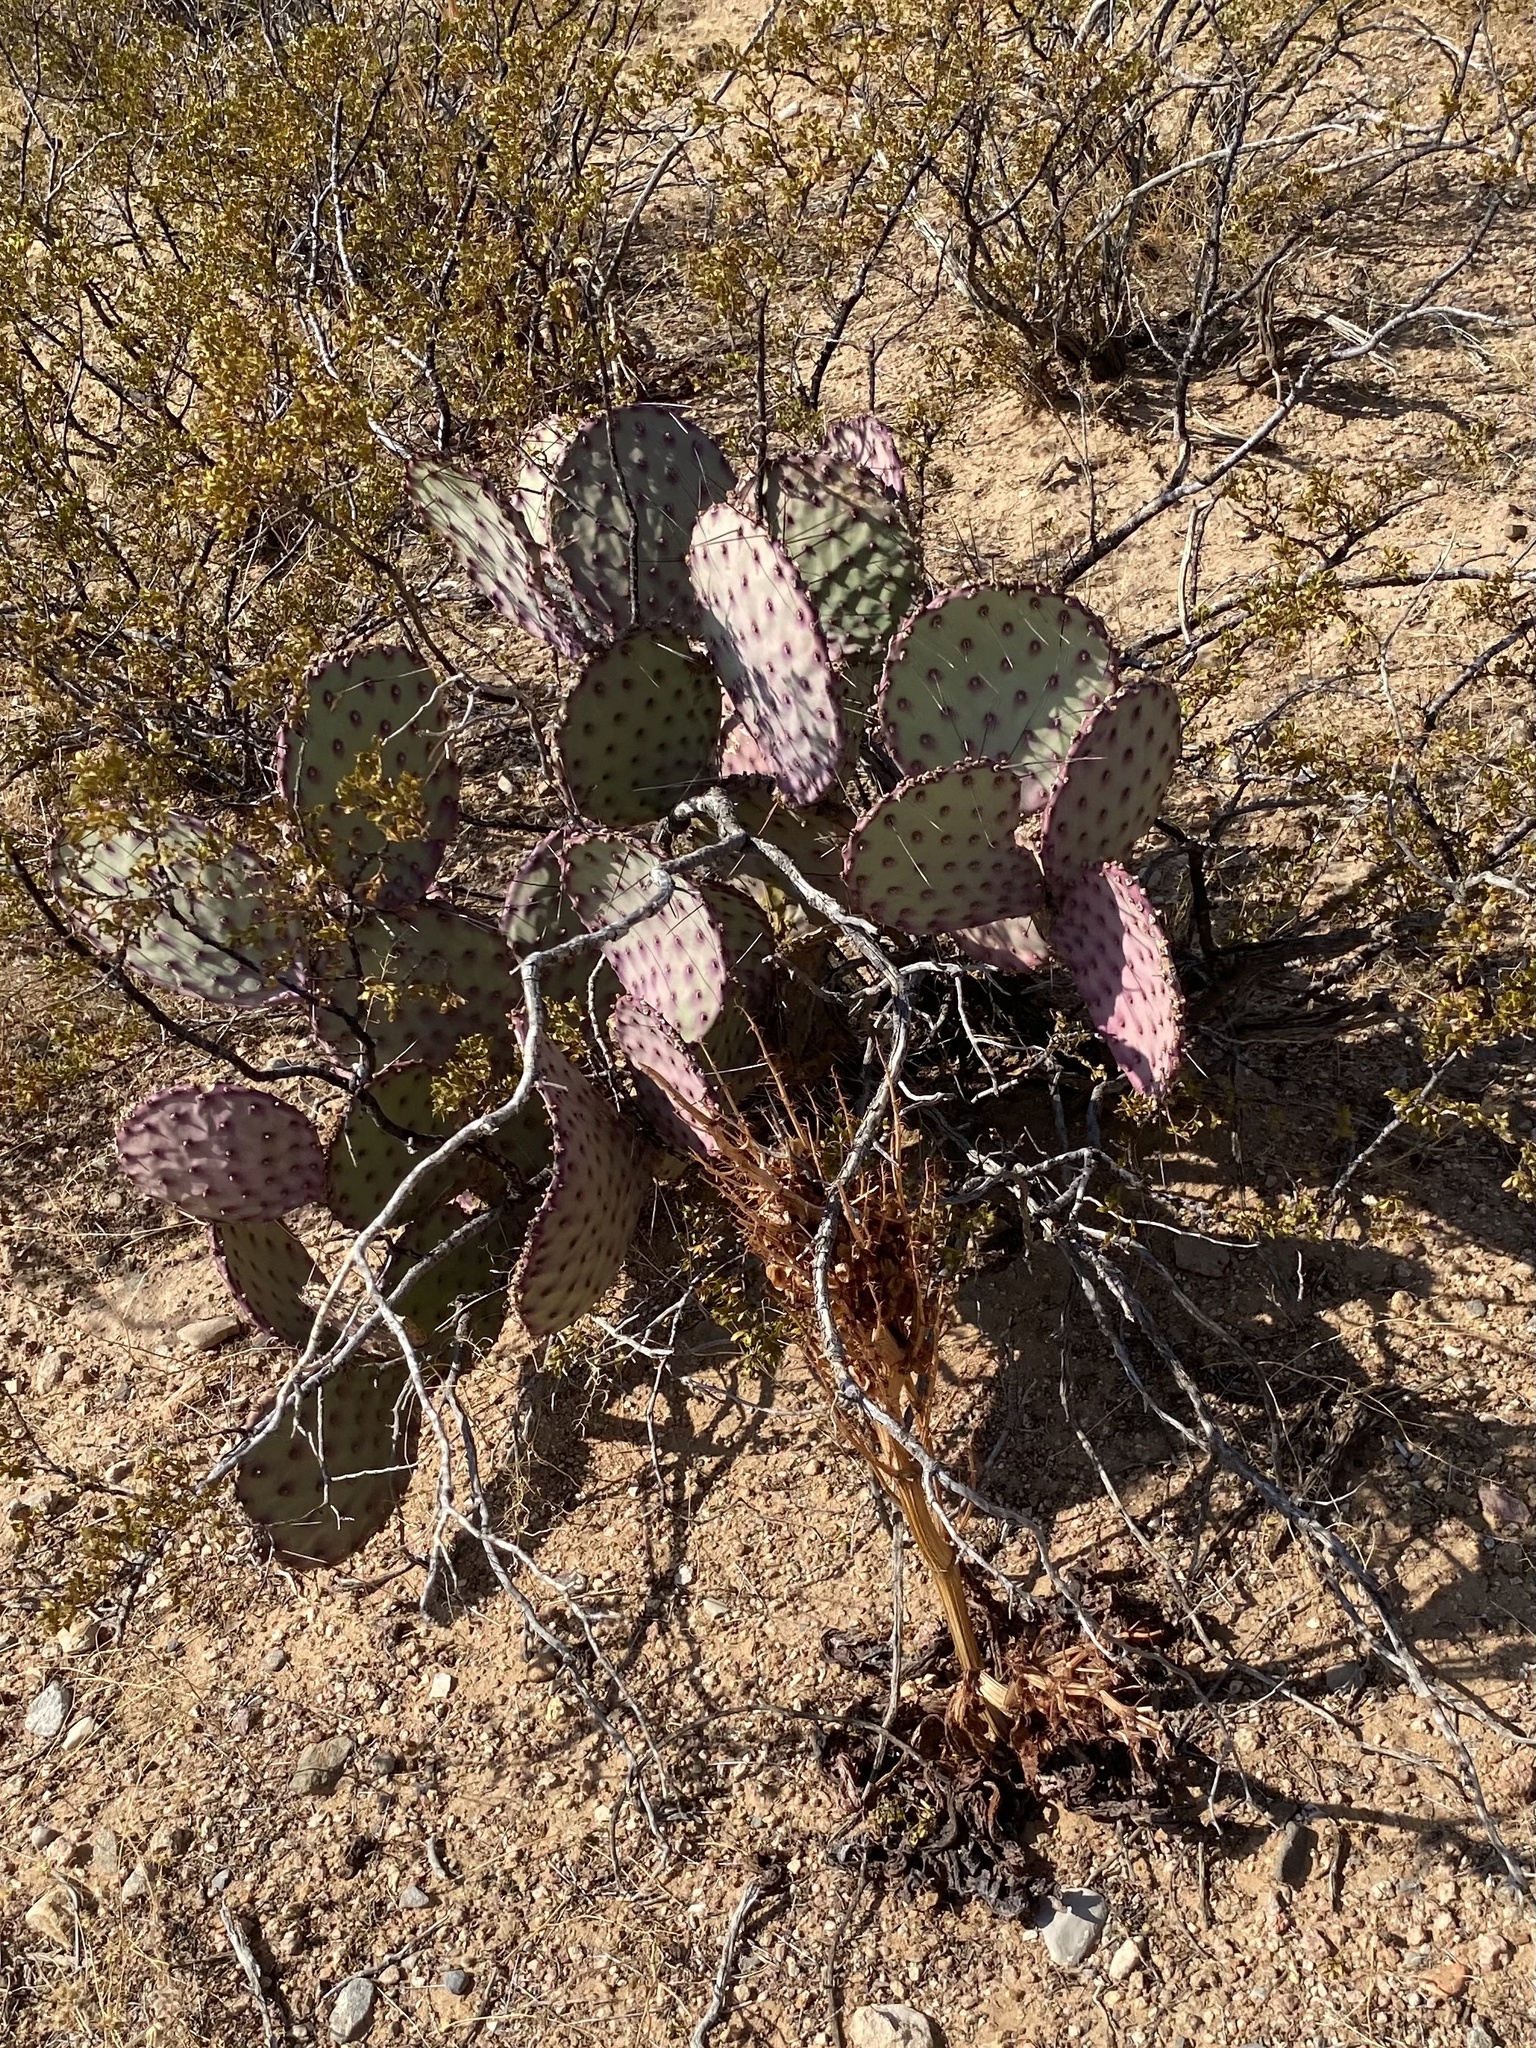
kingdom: Plantae
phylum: Tracheophyta
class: Magnoliopsida
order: Caryophyllales
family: Cactaceae
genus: Opuntia
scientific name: Opuntia macrocentra
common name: Purple prickly-pear
